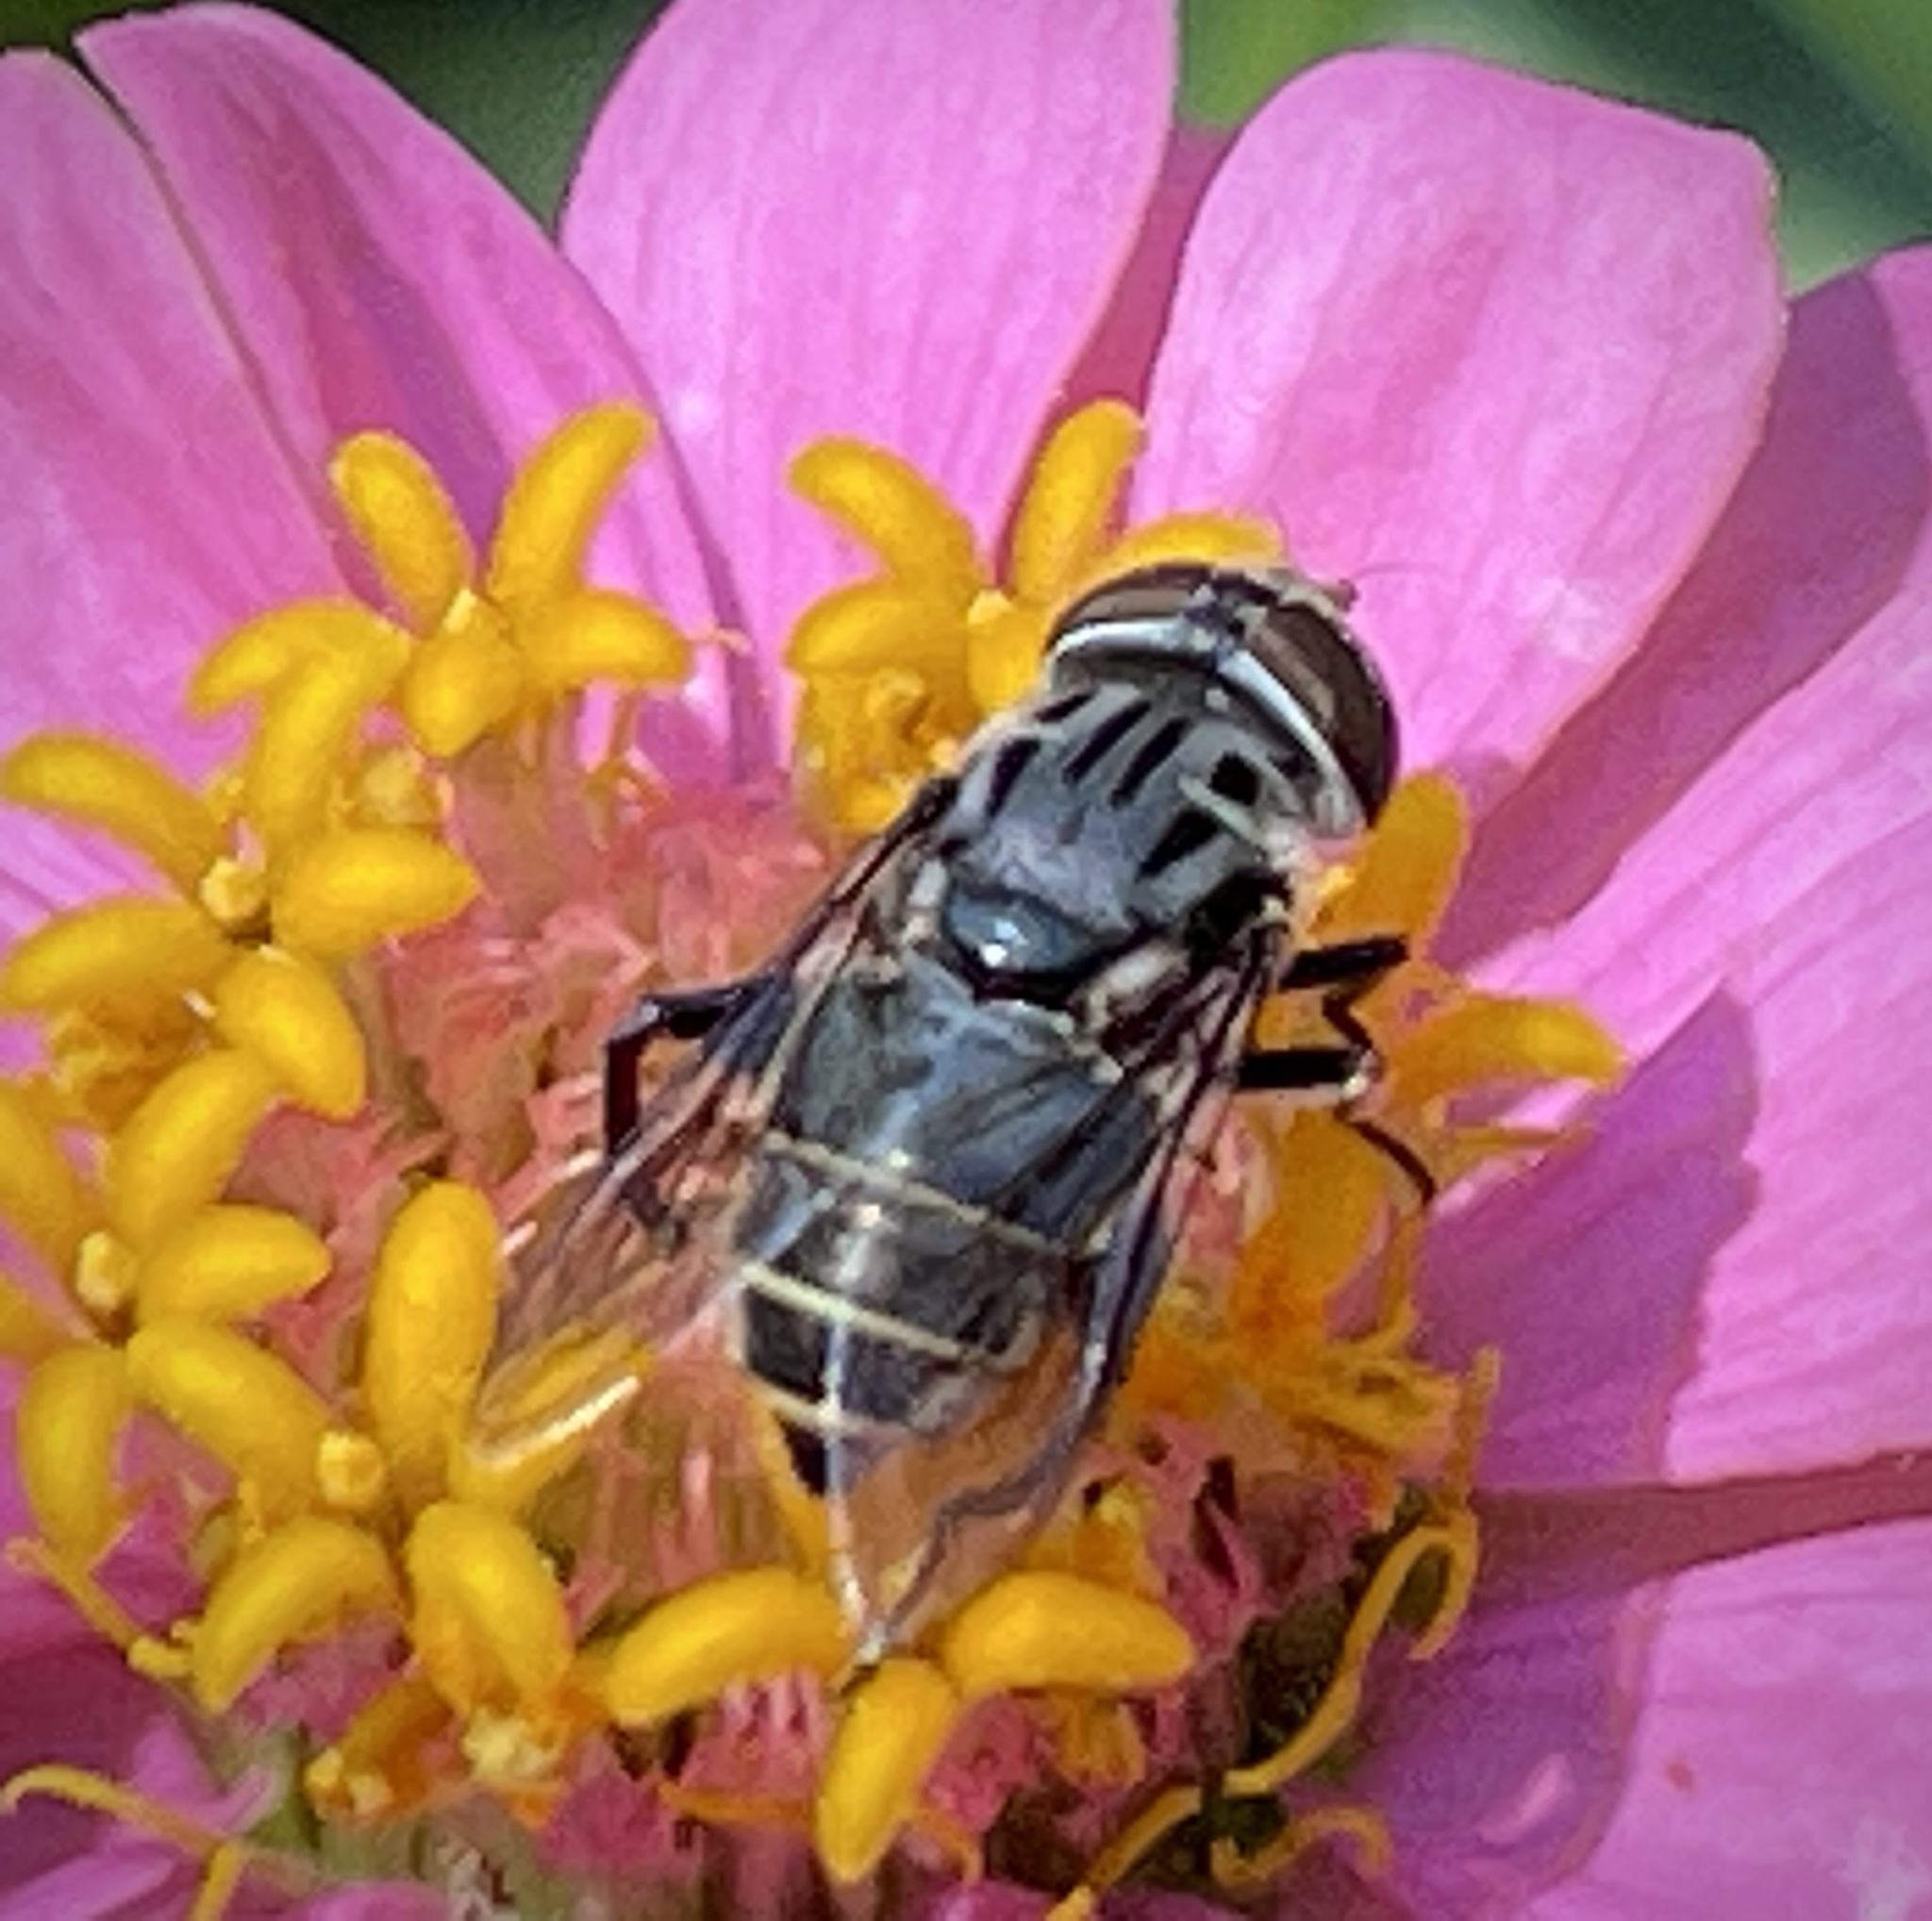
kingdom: Animalia
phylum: Arthropoda
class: Insecta
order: Diptera
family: Syrphidae
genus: Palpada
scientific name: Palpada furcata
